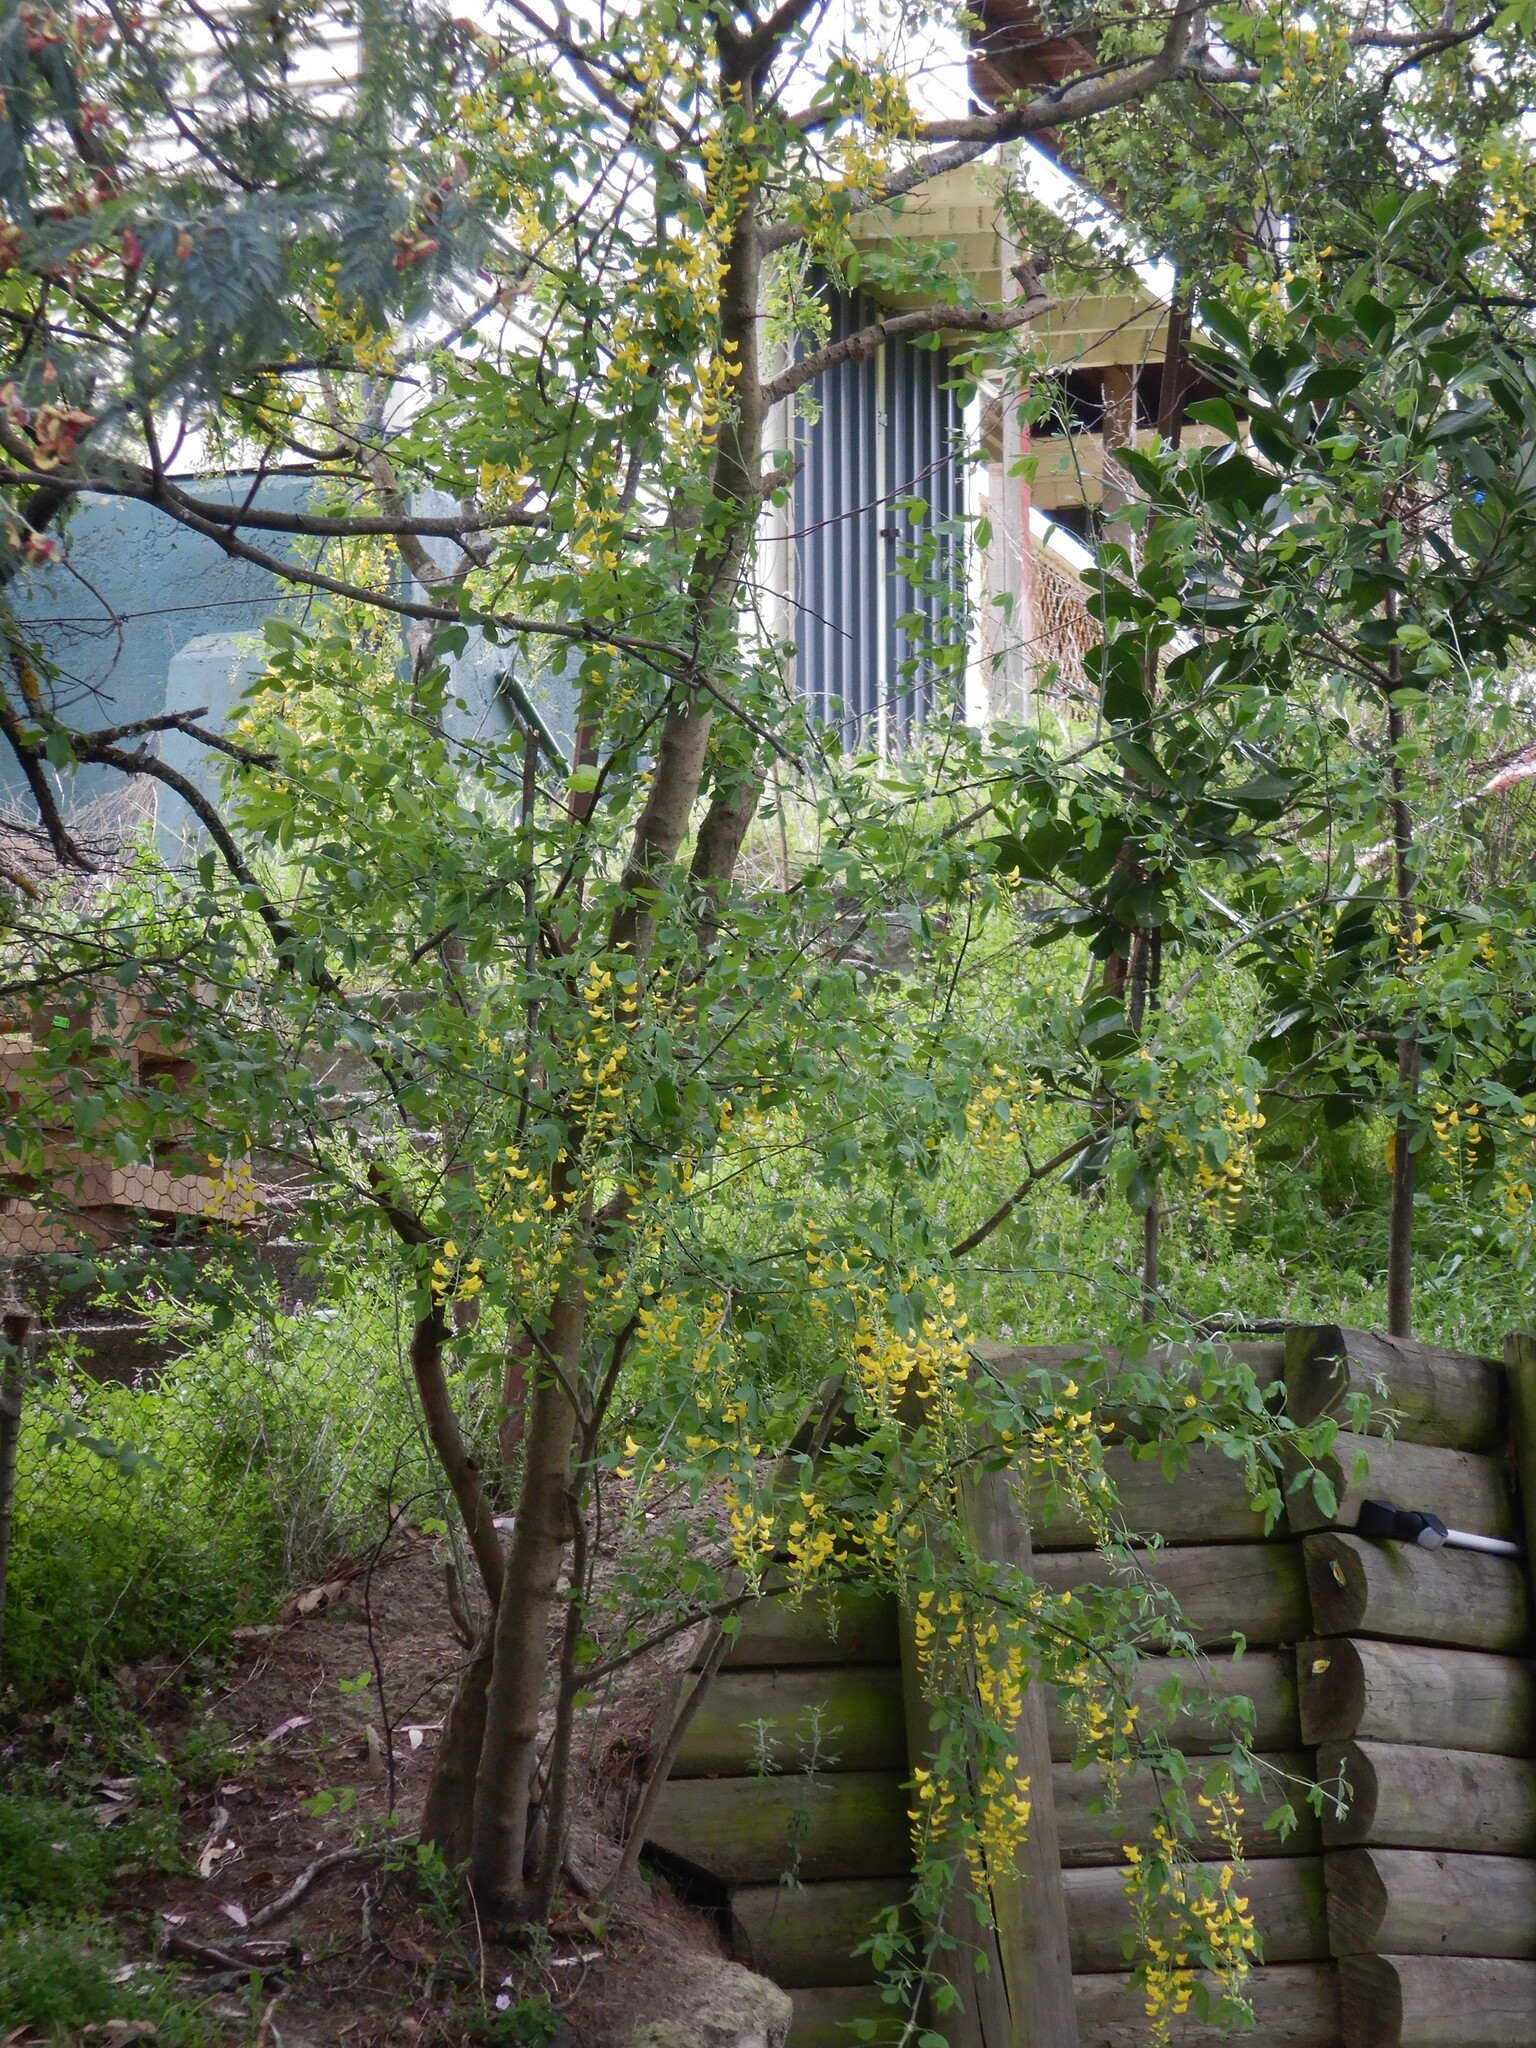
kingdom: Plantae
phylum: Tracheophyta
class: Magnoliopsida
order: Fabales
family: Fabaceae
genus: Laburnum
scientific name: Laburnum anagyroides
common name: Laburnum
